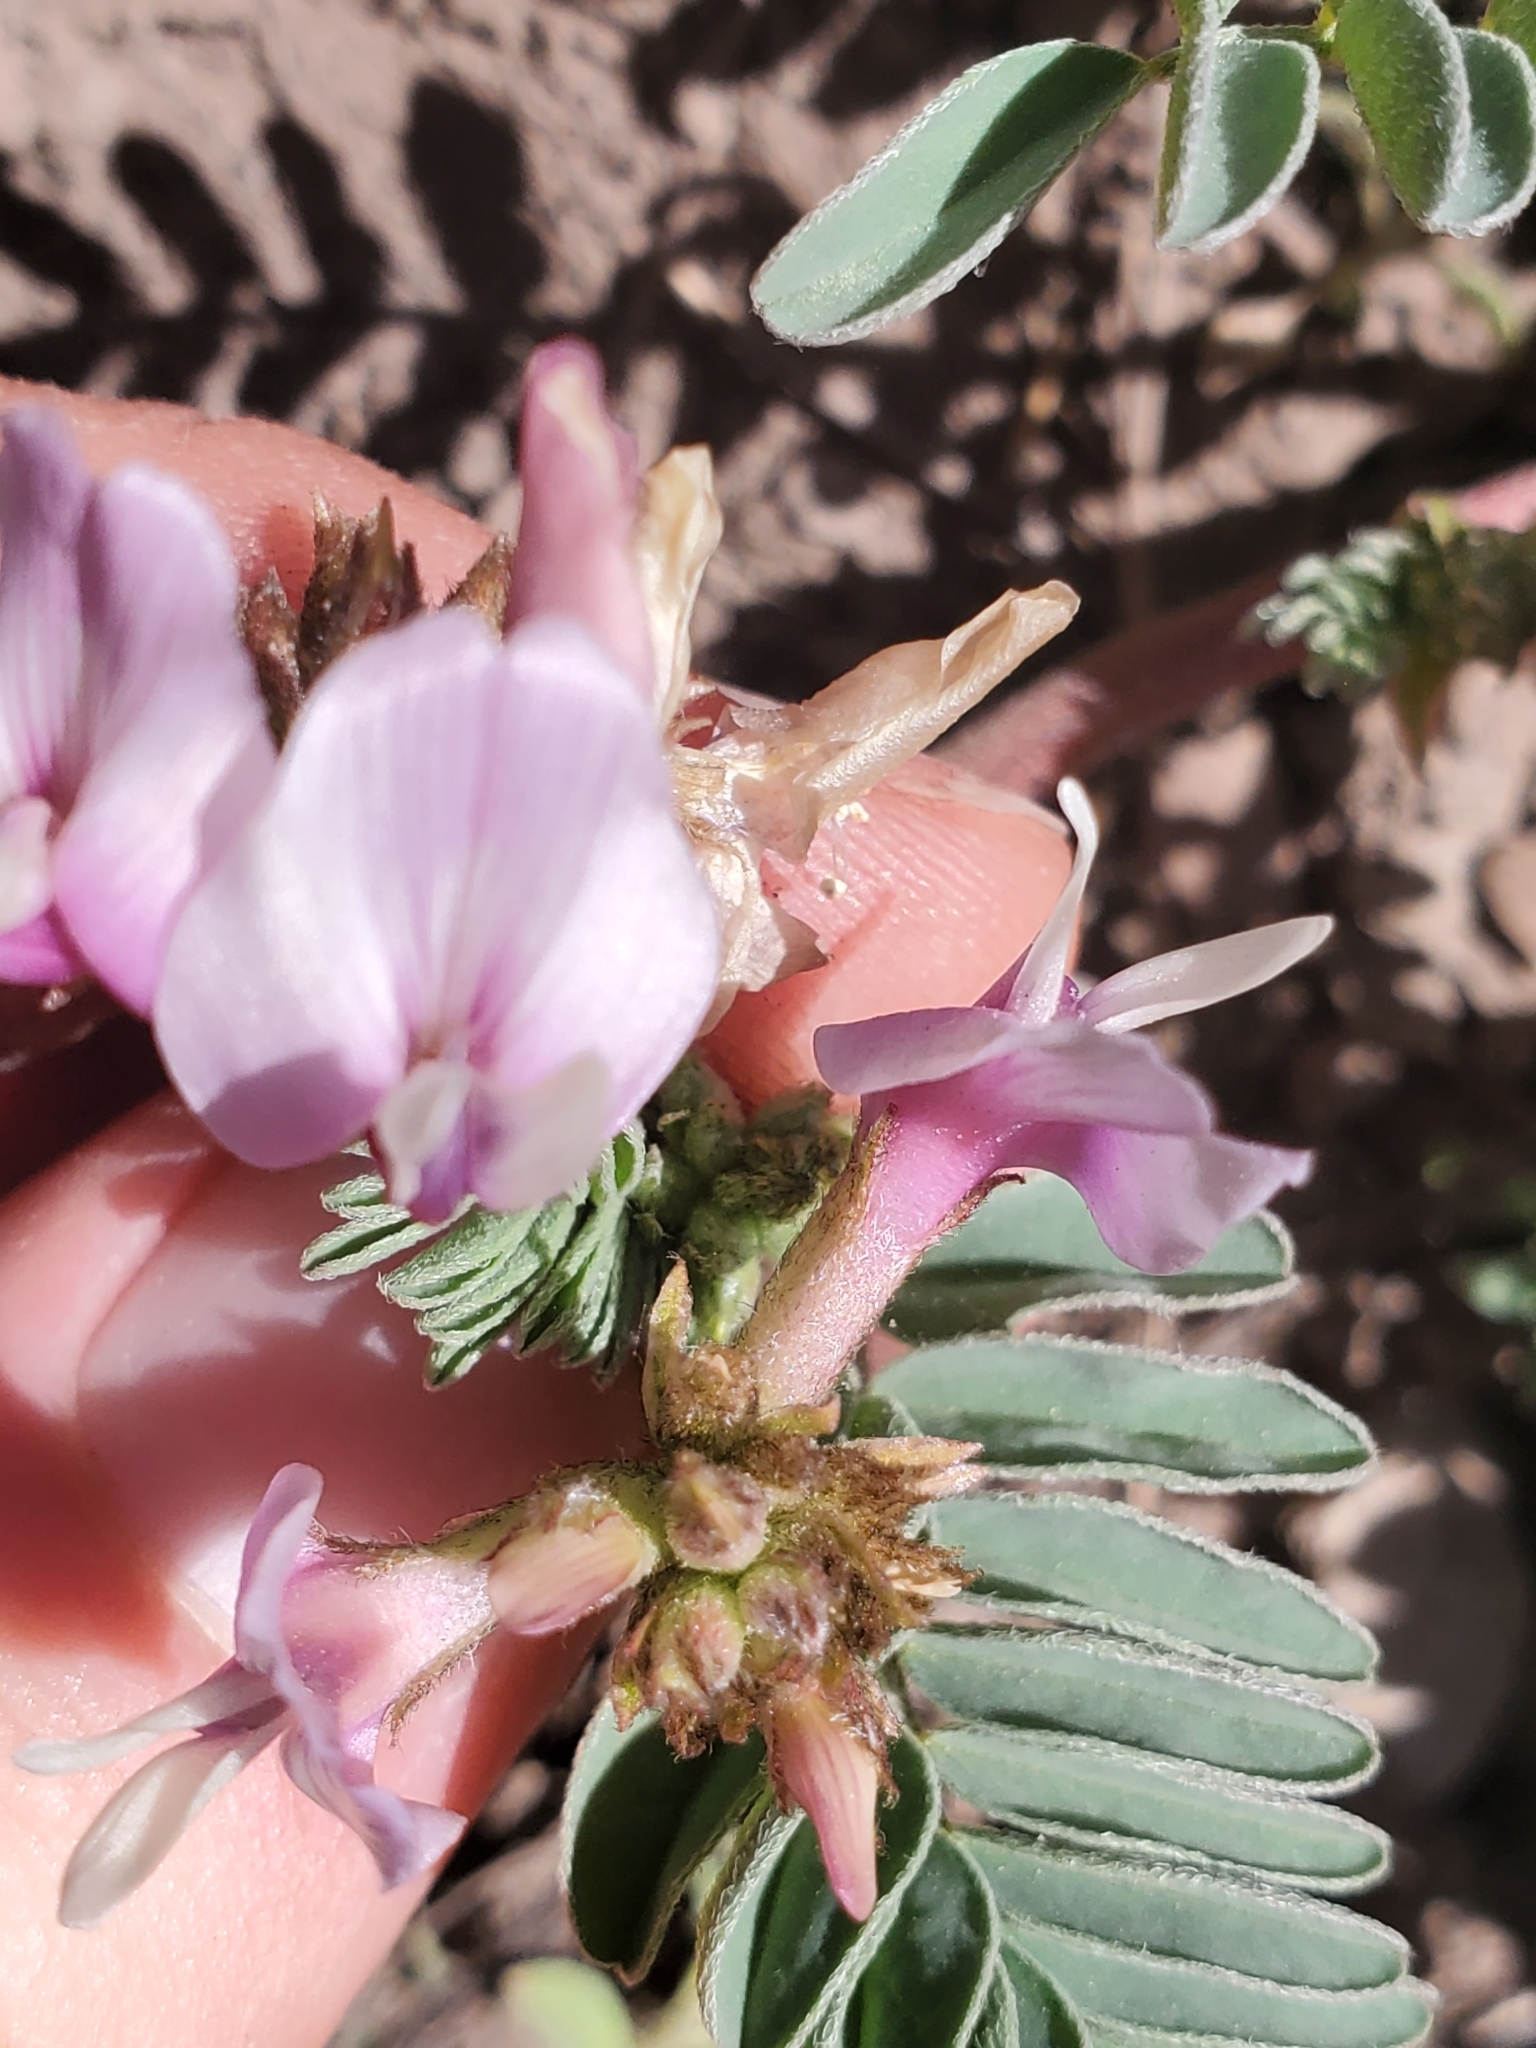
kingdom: Plantae
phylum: Tracheophyta
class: Magnoliopsida
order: Fabales
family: Fabaceae
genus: Astragalus
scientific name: Astragalus cibarius
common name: Browse milk-vetch
